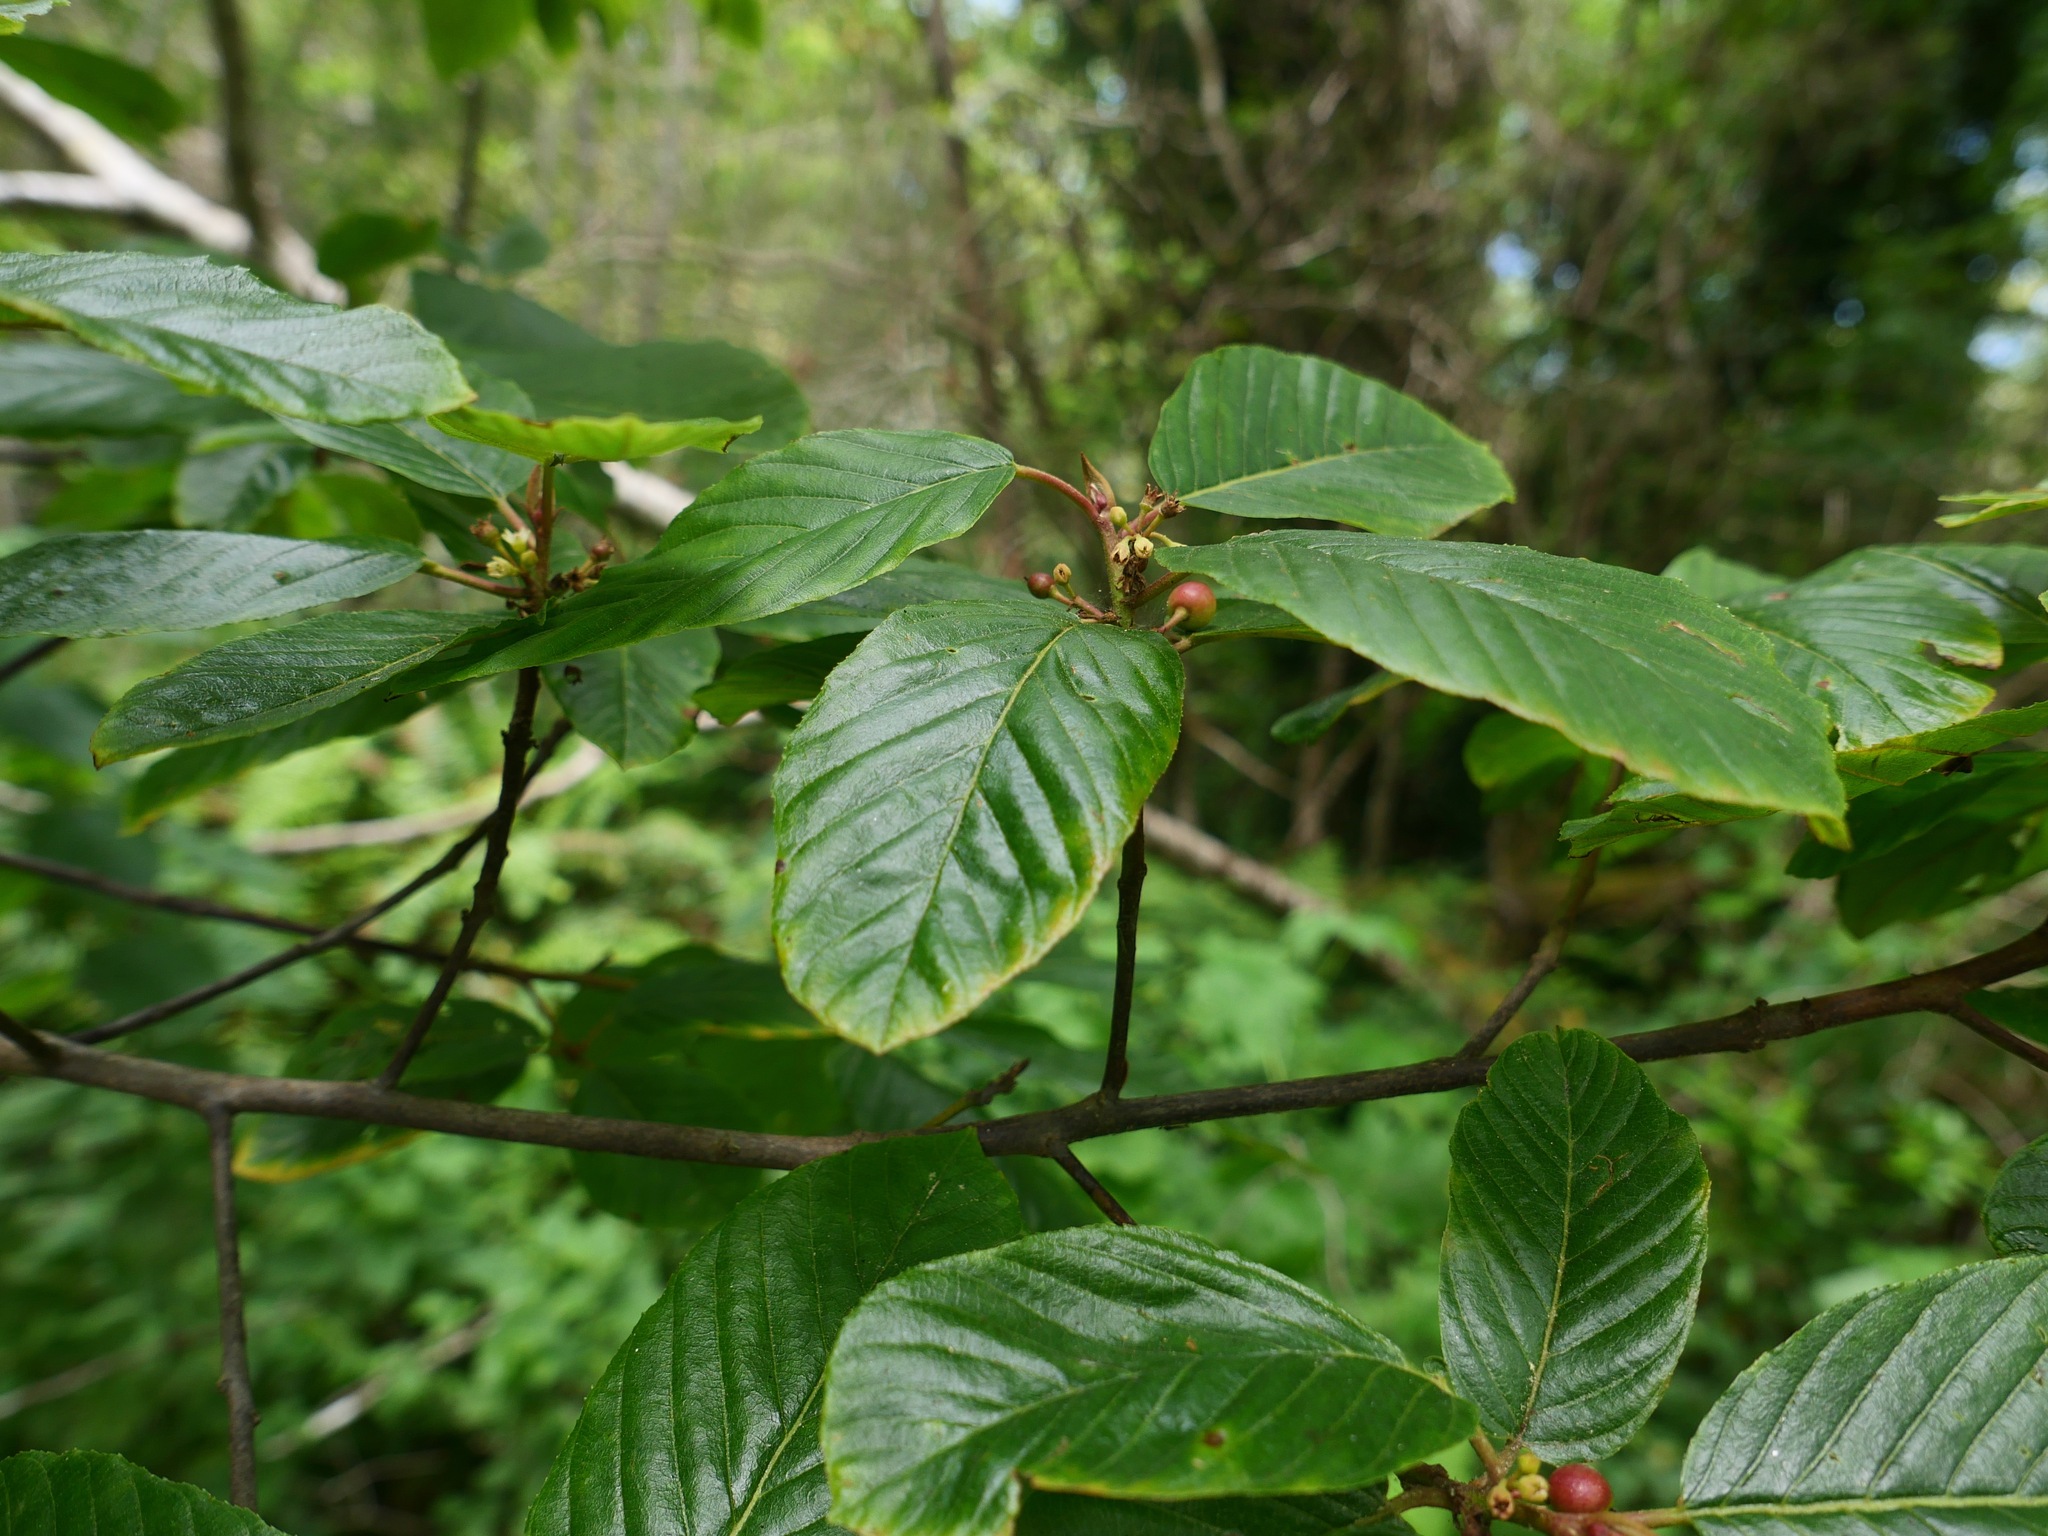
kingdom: Plantae
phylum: Tracheophyta
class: Magnoliopsida
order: Rosales
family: Rhamnaceae
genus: Frangula
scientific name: Frangula purshiana
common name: Cascara buckthorn
